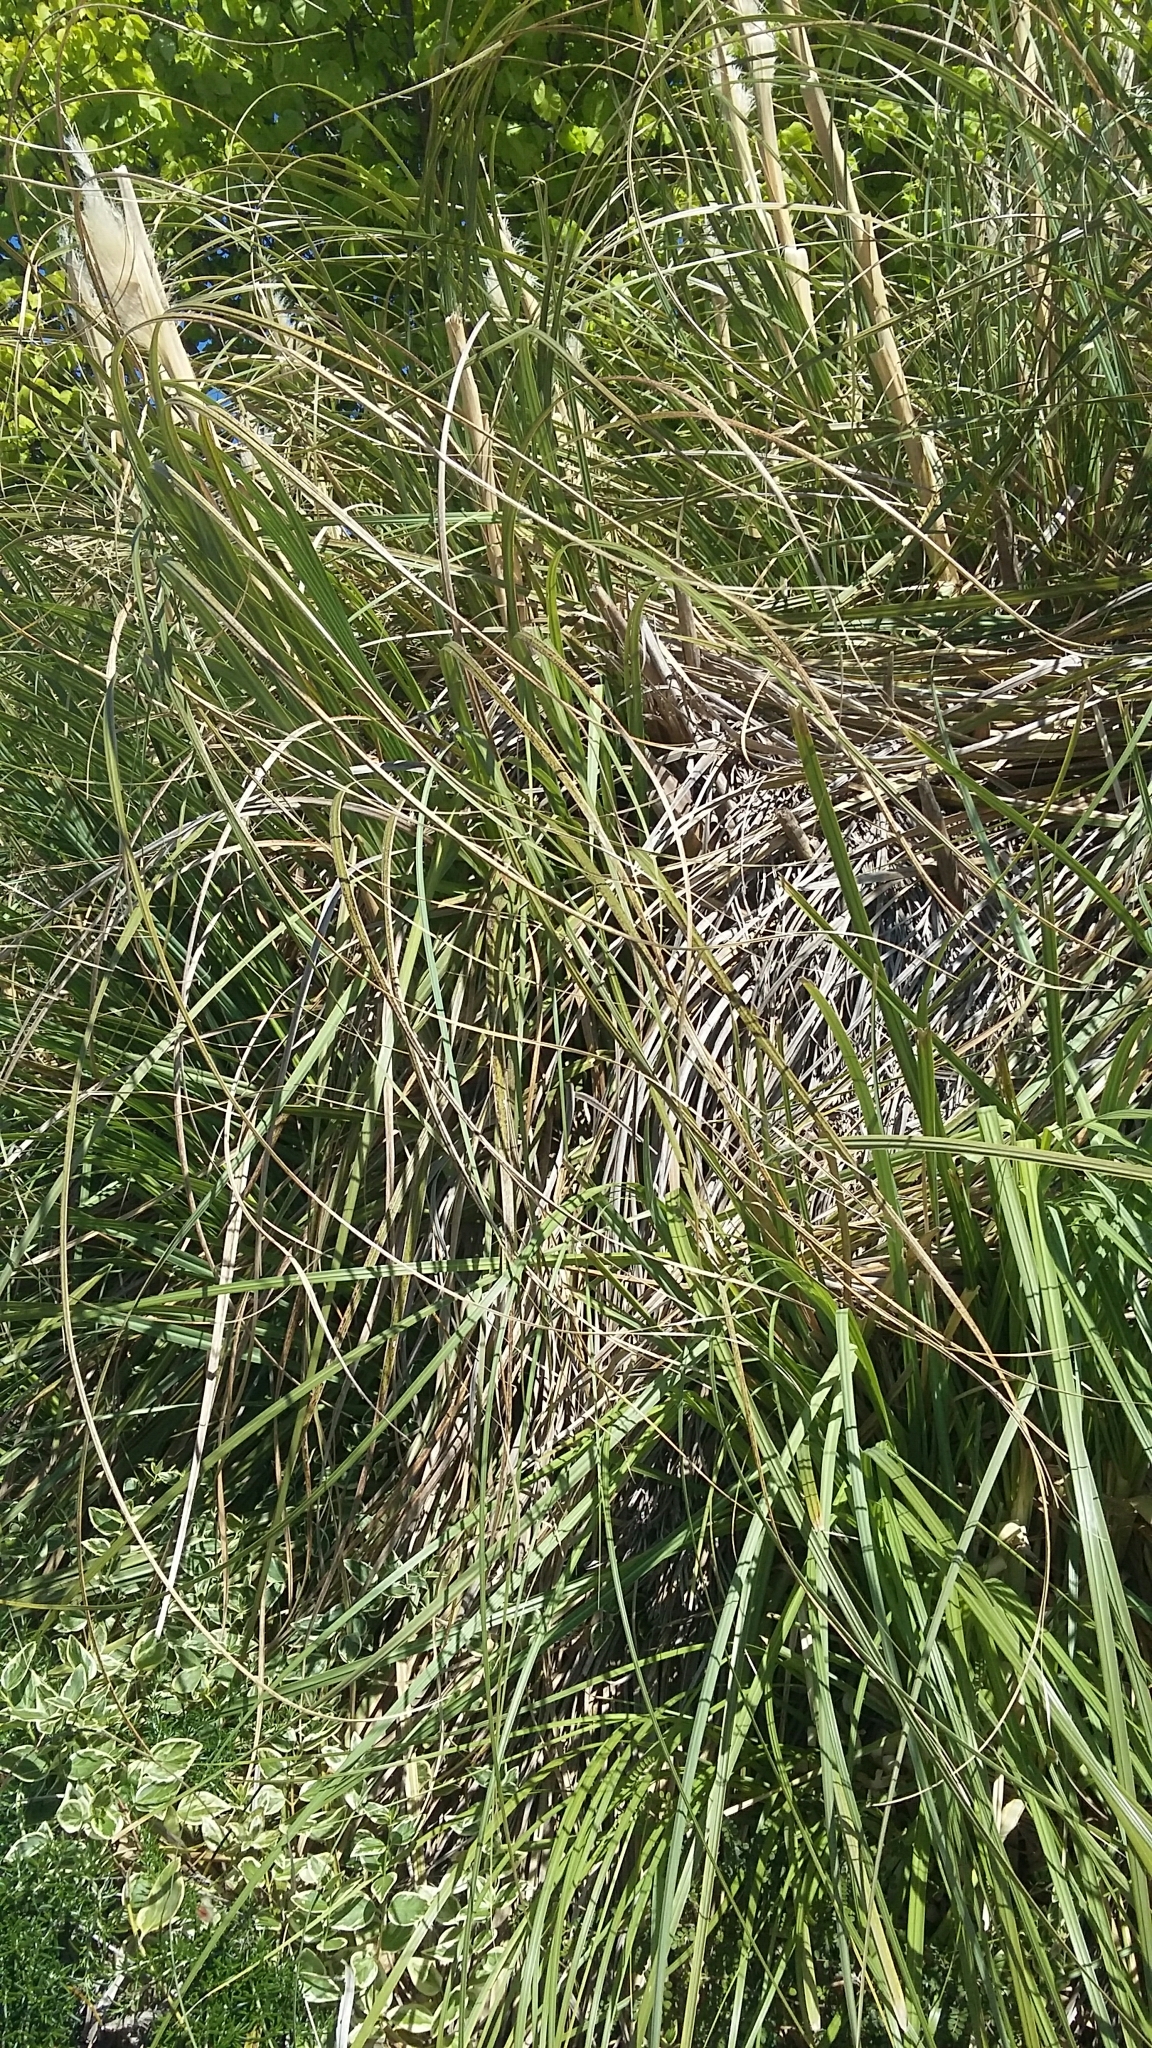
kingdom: Plantae
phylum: Tracheophyta
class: Liliopsida
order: Poales
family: Poaceae
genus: Cortaderia
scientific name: Cortaderia selloana
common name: Uruguayan pampas grass
